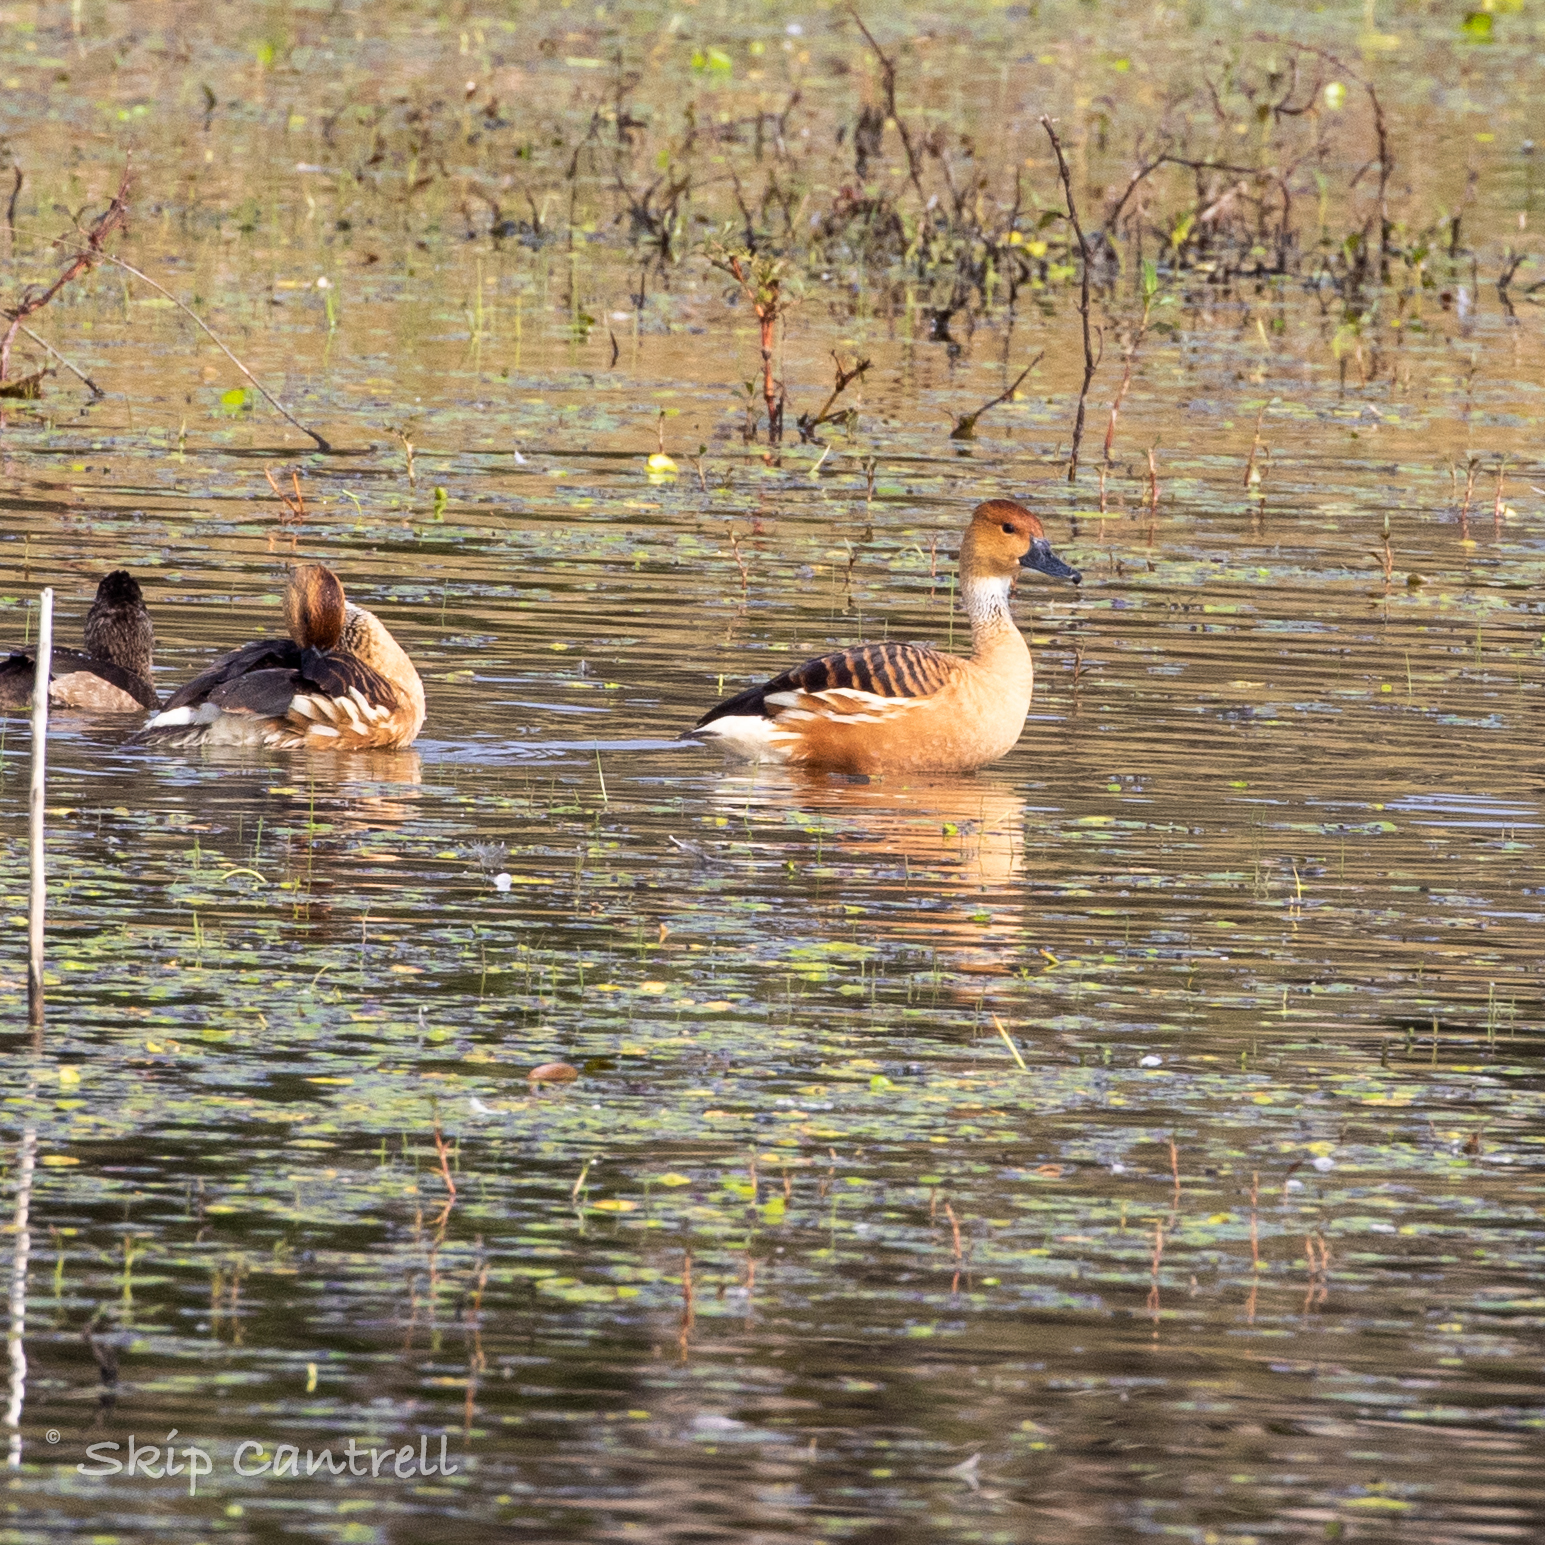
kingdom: Animalia
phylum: Chordata
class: Aves
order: Anseriformes
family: Anatidae
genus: Dendrocygna
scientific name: Dendrocygna bicolor
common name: Fulvous whistling duck
